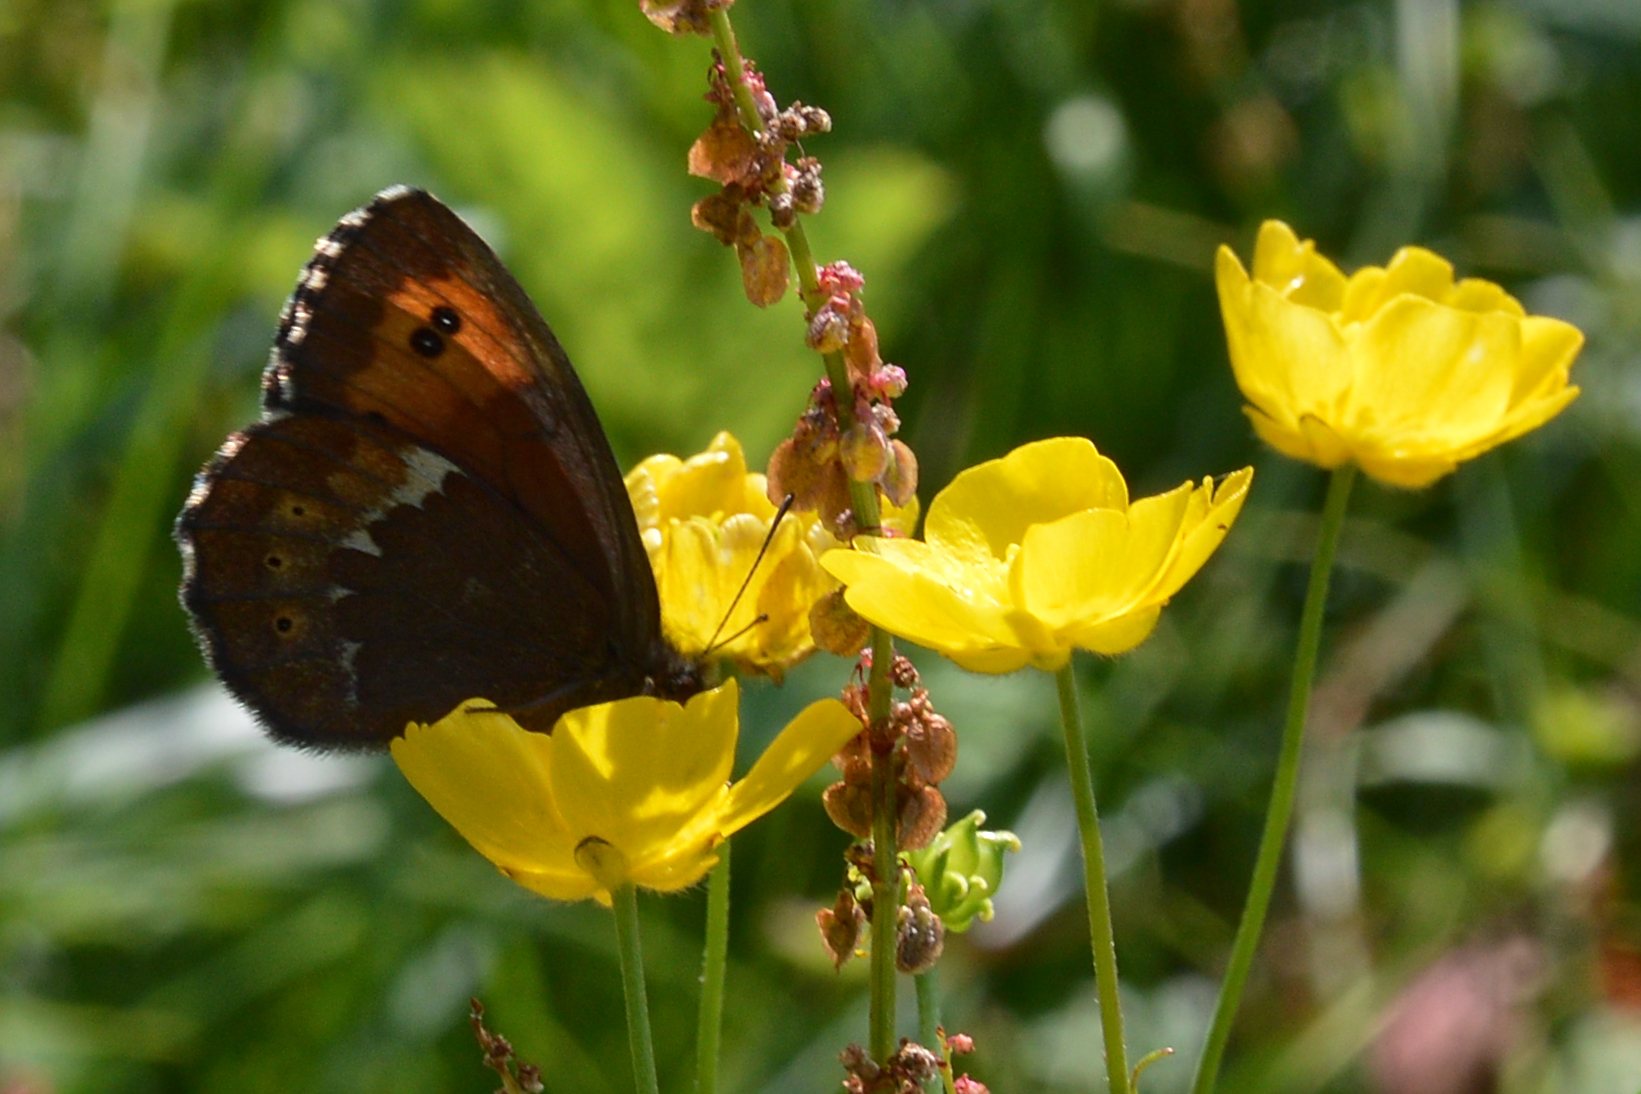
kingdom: Animalia
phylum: Arthropoda
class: Insecta
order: Lepidoptera
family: Nymphalidae
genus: Erebia
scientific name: Erebia ligea
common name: Arran brown
